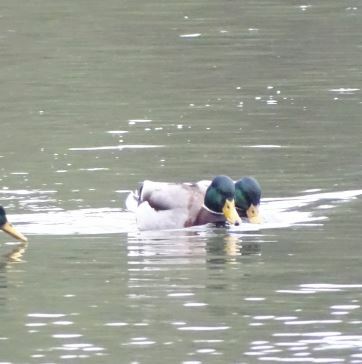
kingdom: Animalia
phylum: Chordata
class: Aves
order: Anseriformes
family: Anatidae
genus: Anas
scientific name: Anas platyrhynchos
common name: Mallard
